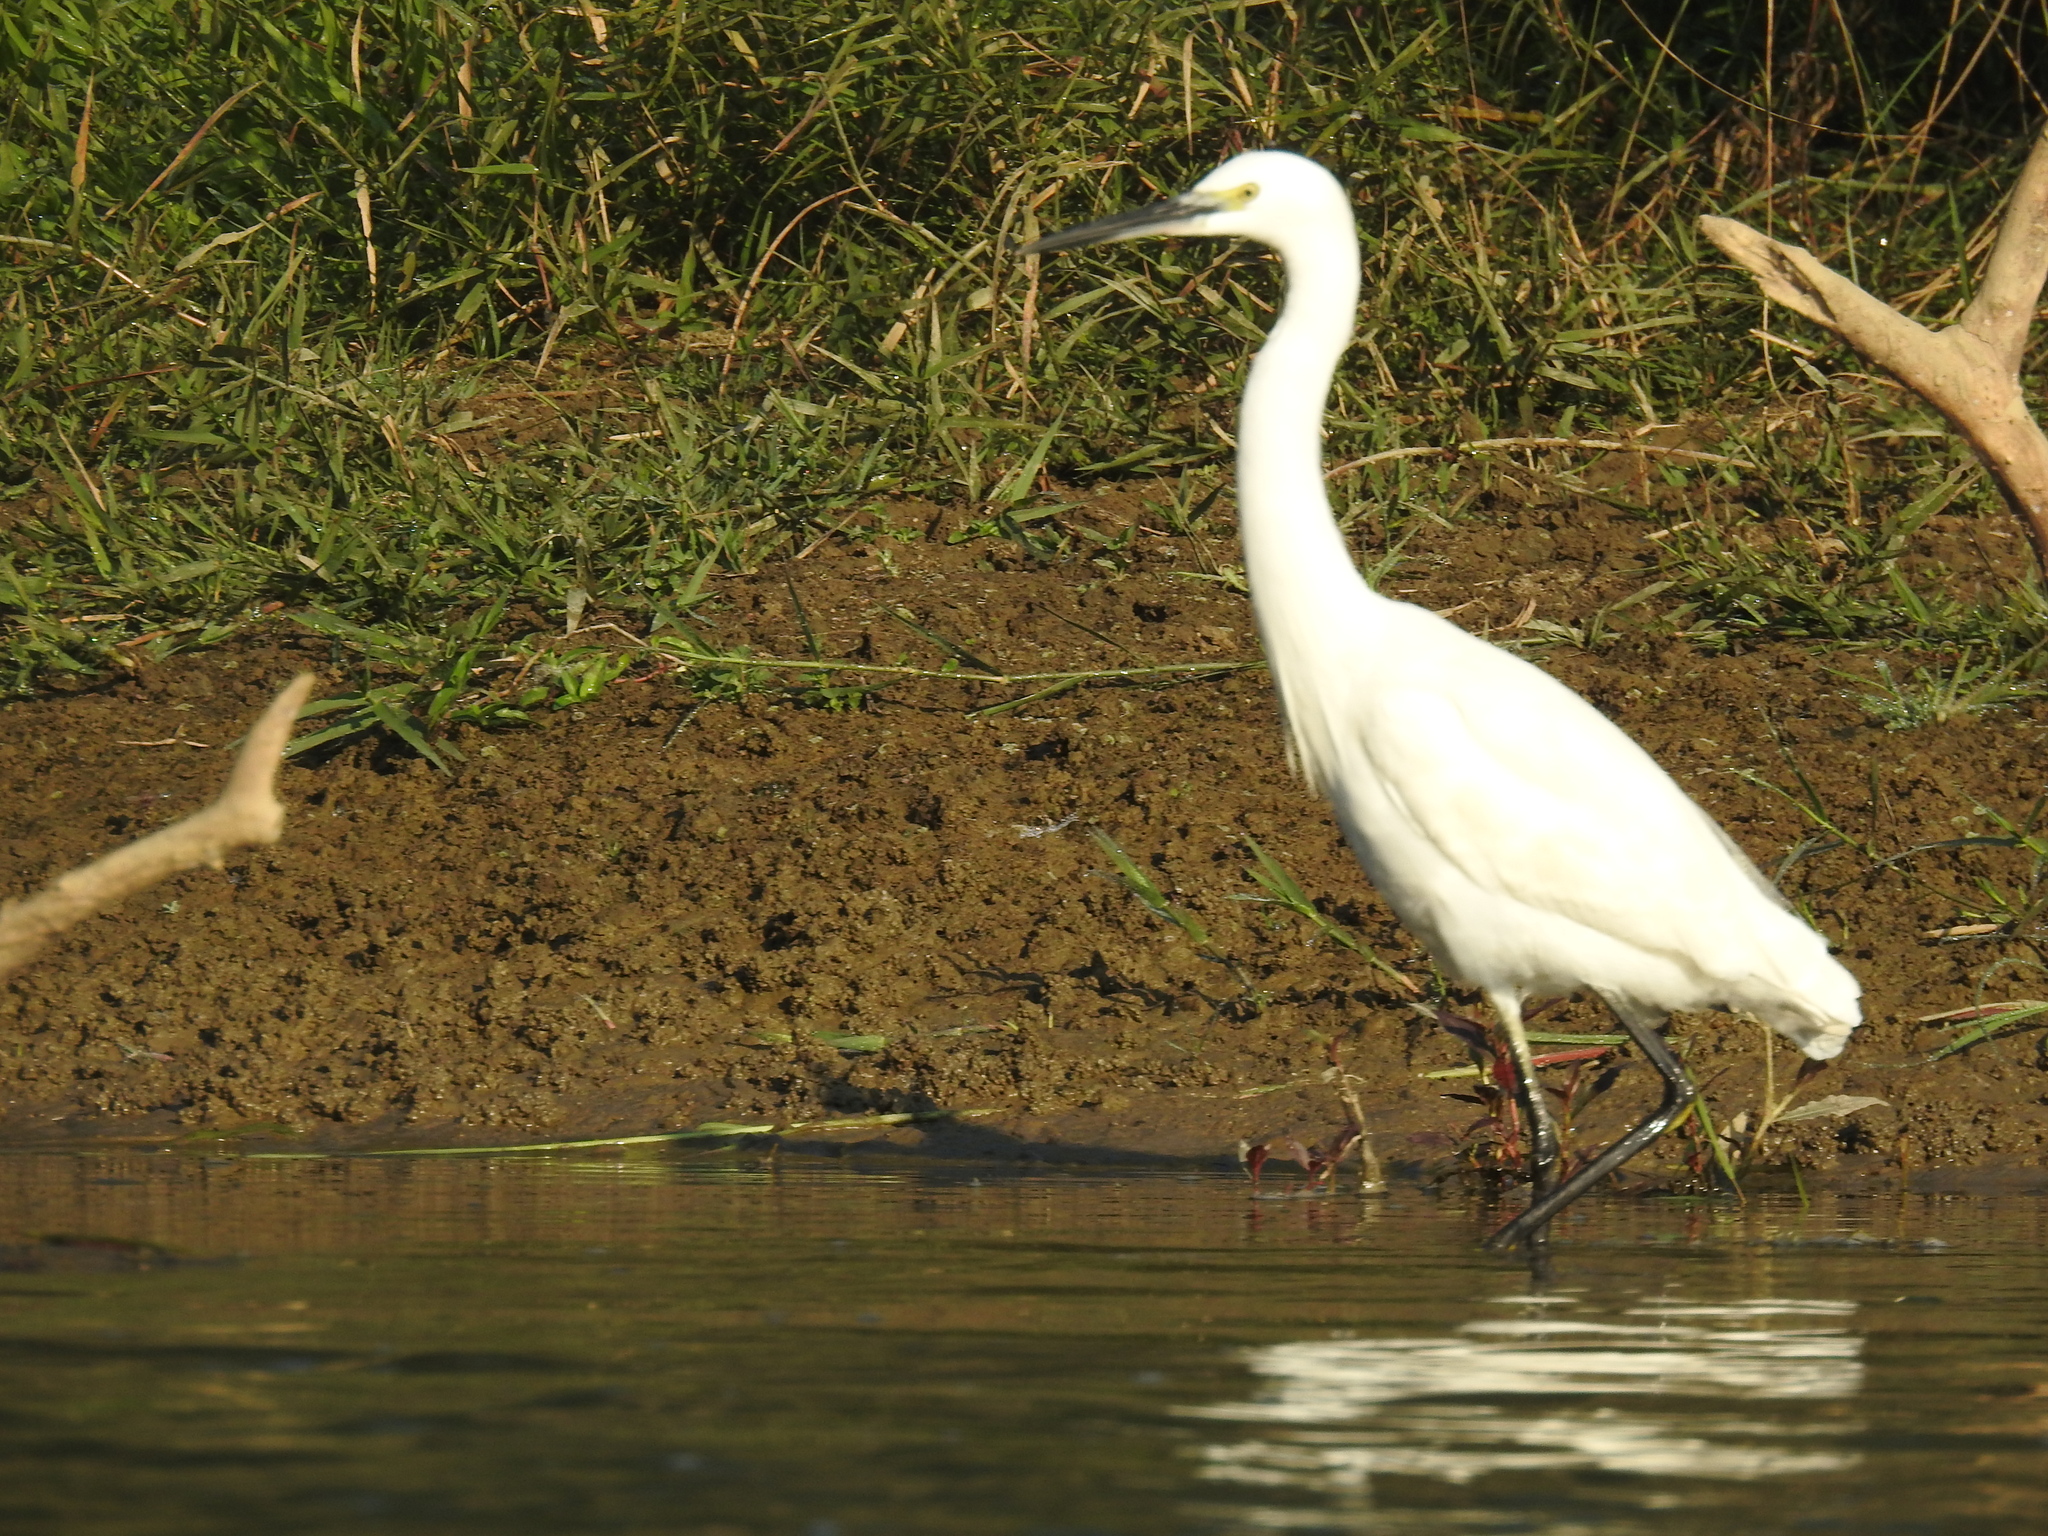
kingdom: Animalia
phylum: Chordata
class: Aves
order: Pelecaniformes
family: Ardeidae
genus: Egretta
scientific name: Egretta garzetta
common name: Little egret
